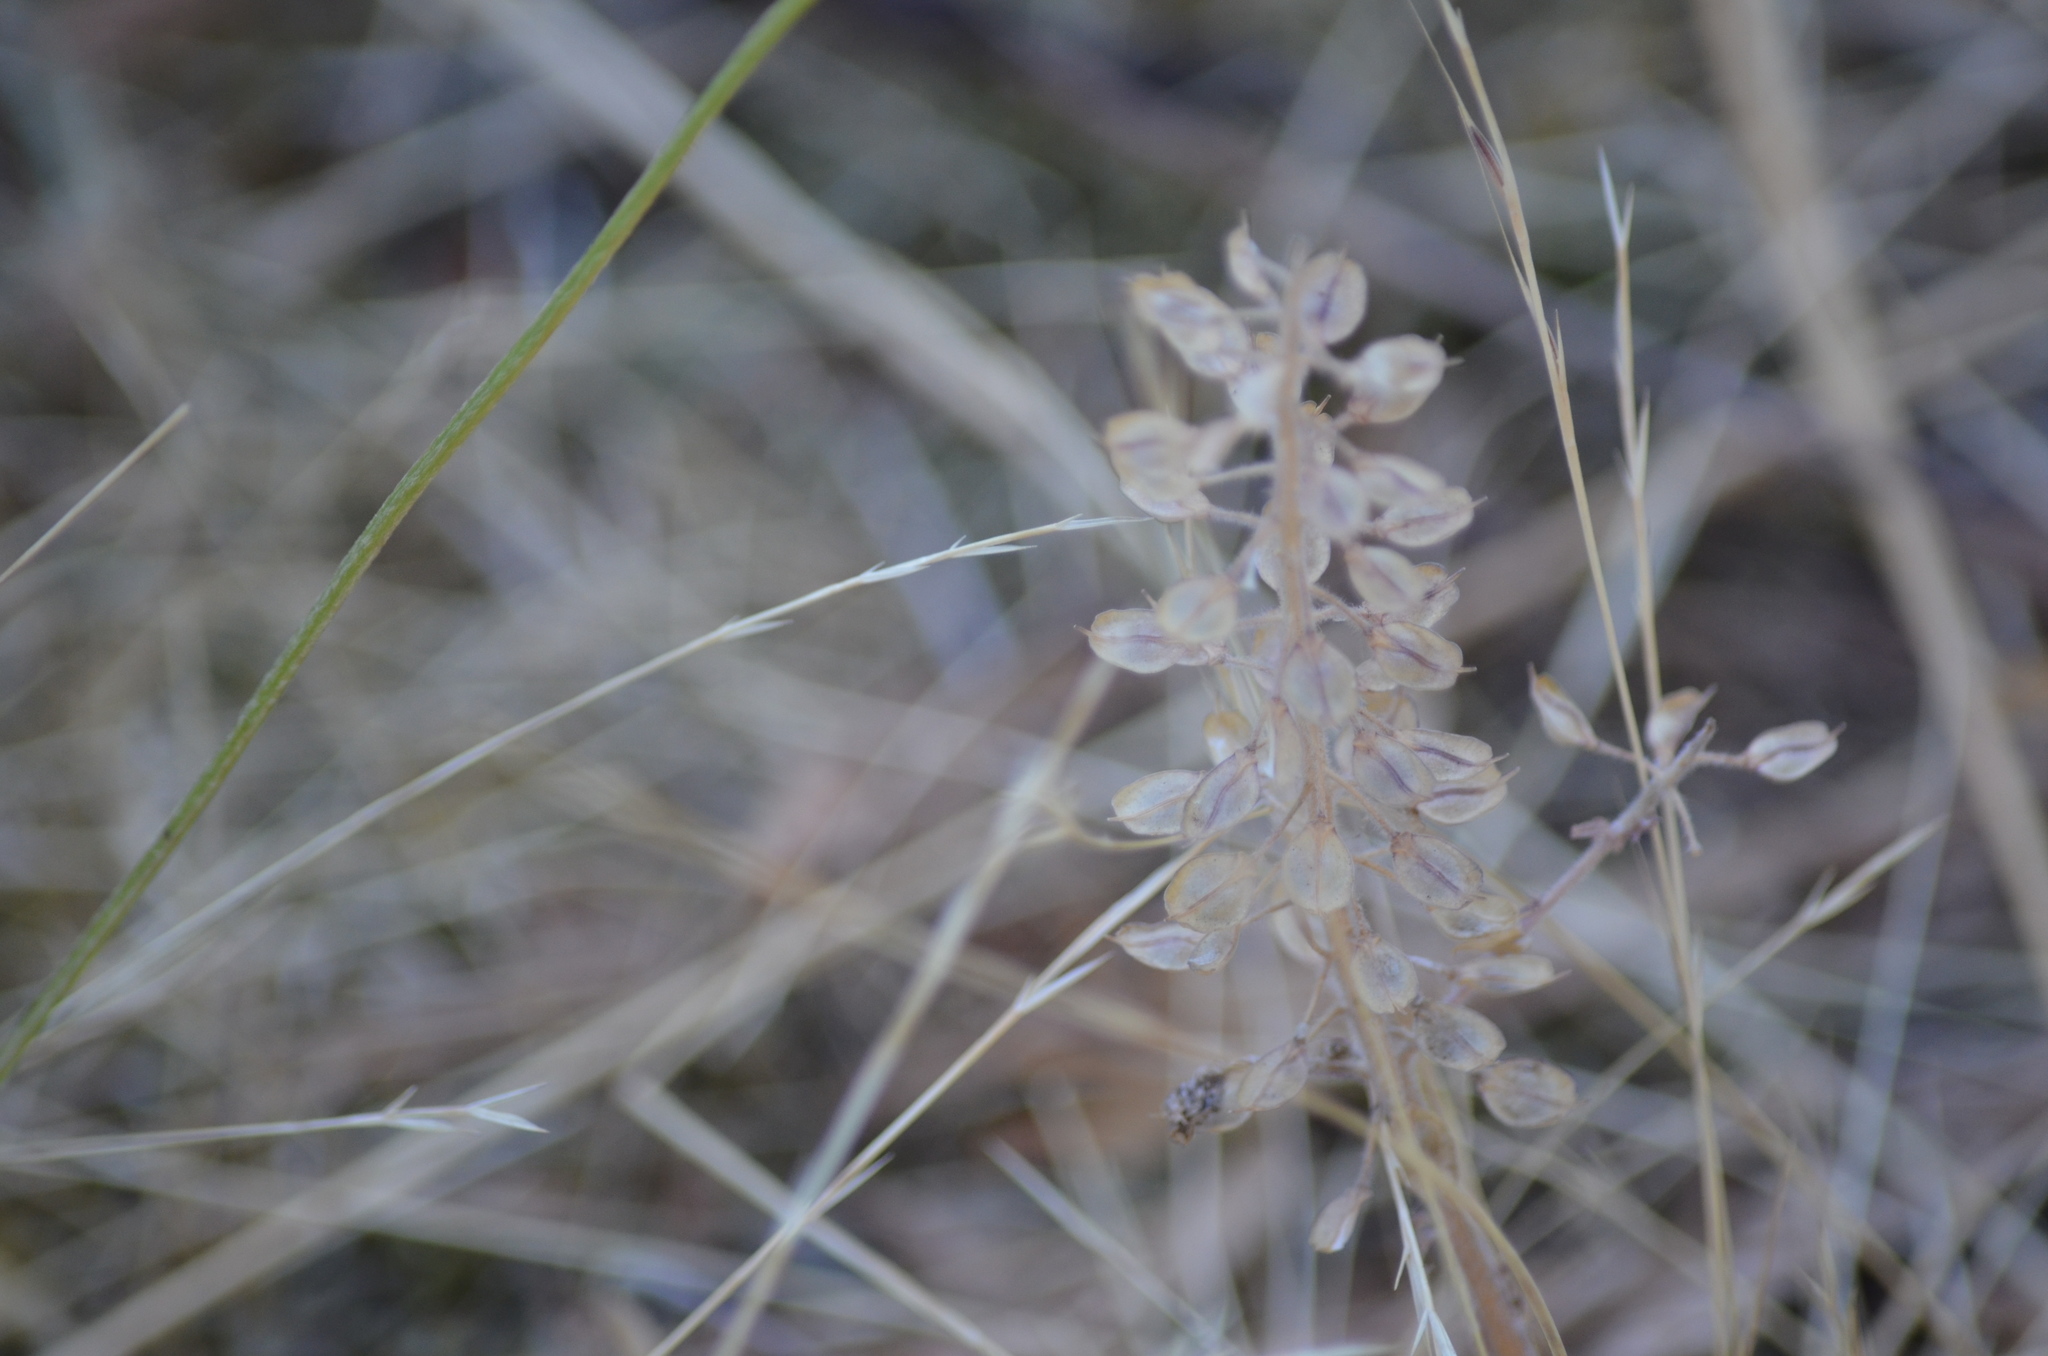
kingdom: Plantae
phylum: Tracheophyta
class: Magnoliopsida
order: Brassicales
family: Brassicaceae
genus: Lepidium
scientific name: Lepidium heterophyllum
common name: Smith's pepperwort
